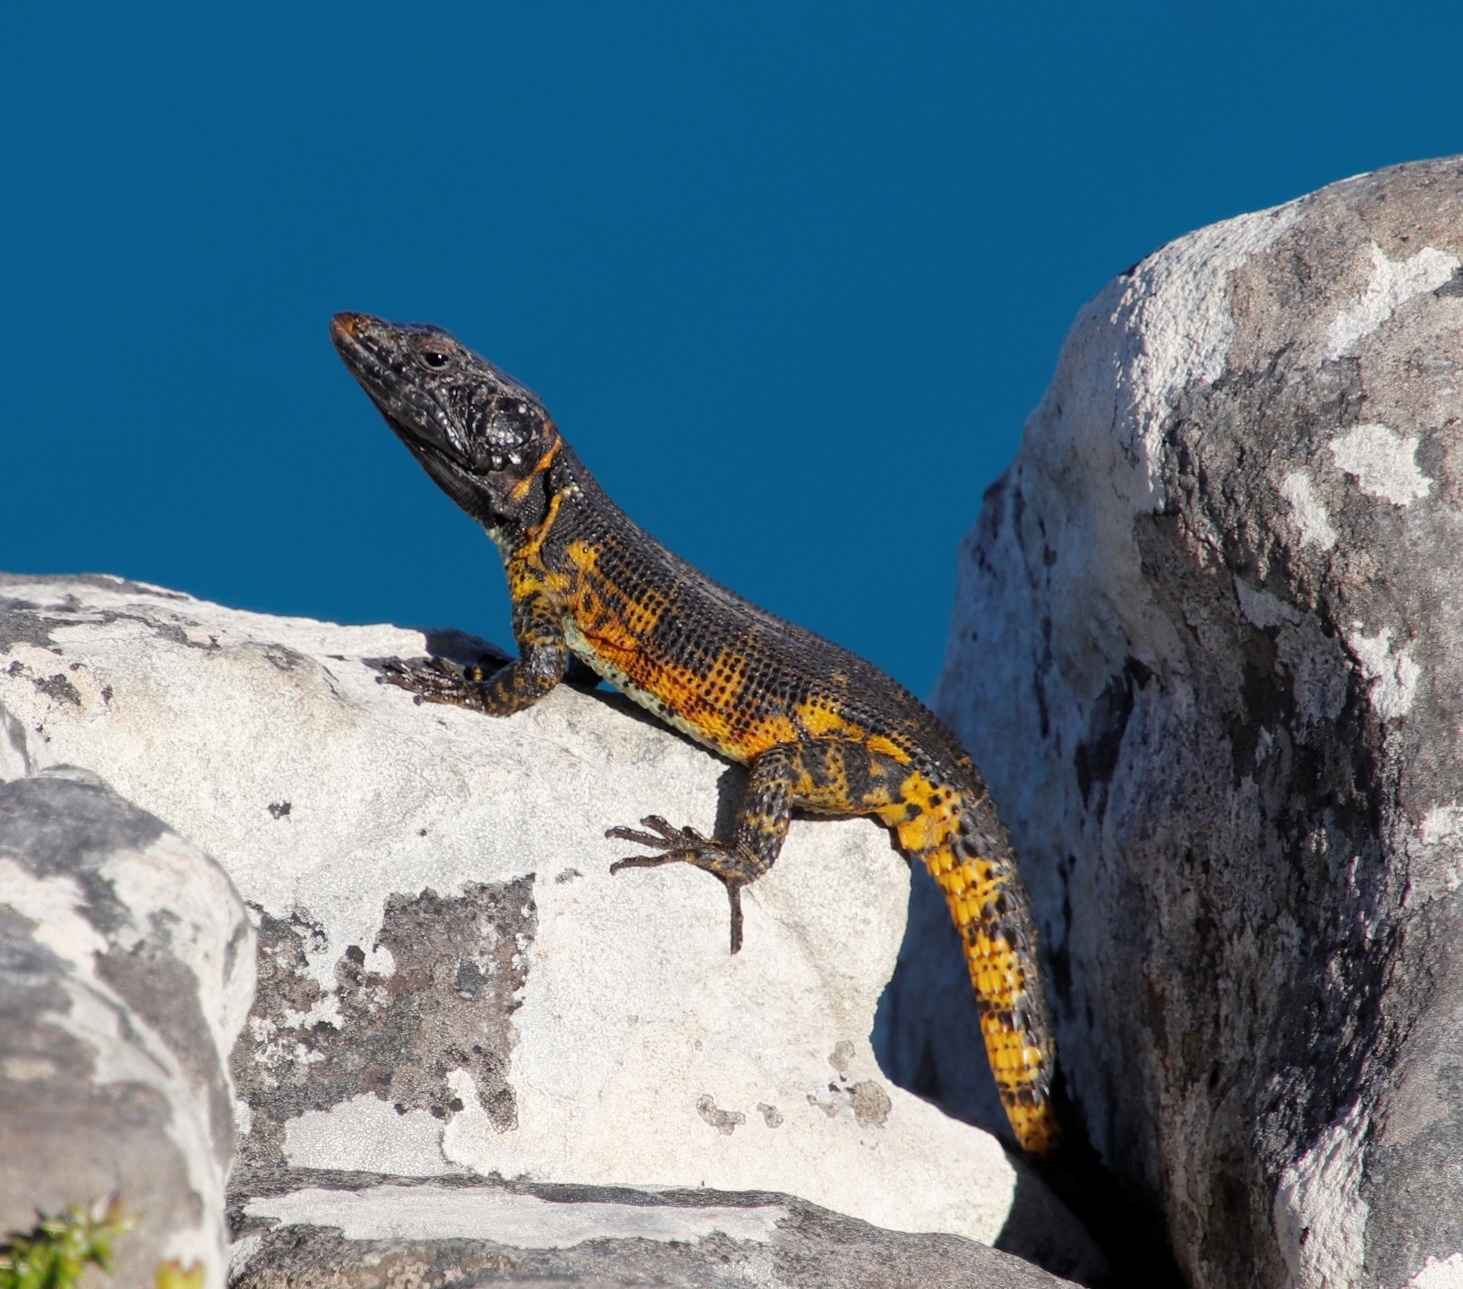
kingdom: Animalia
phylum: Chordata
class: Squamata
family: Cordylidae
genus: Pseudocordylus
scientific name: Pseudocordylus microlepidotus
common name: Cape crag lizard
